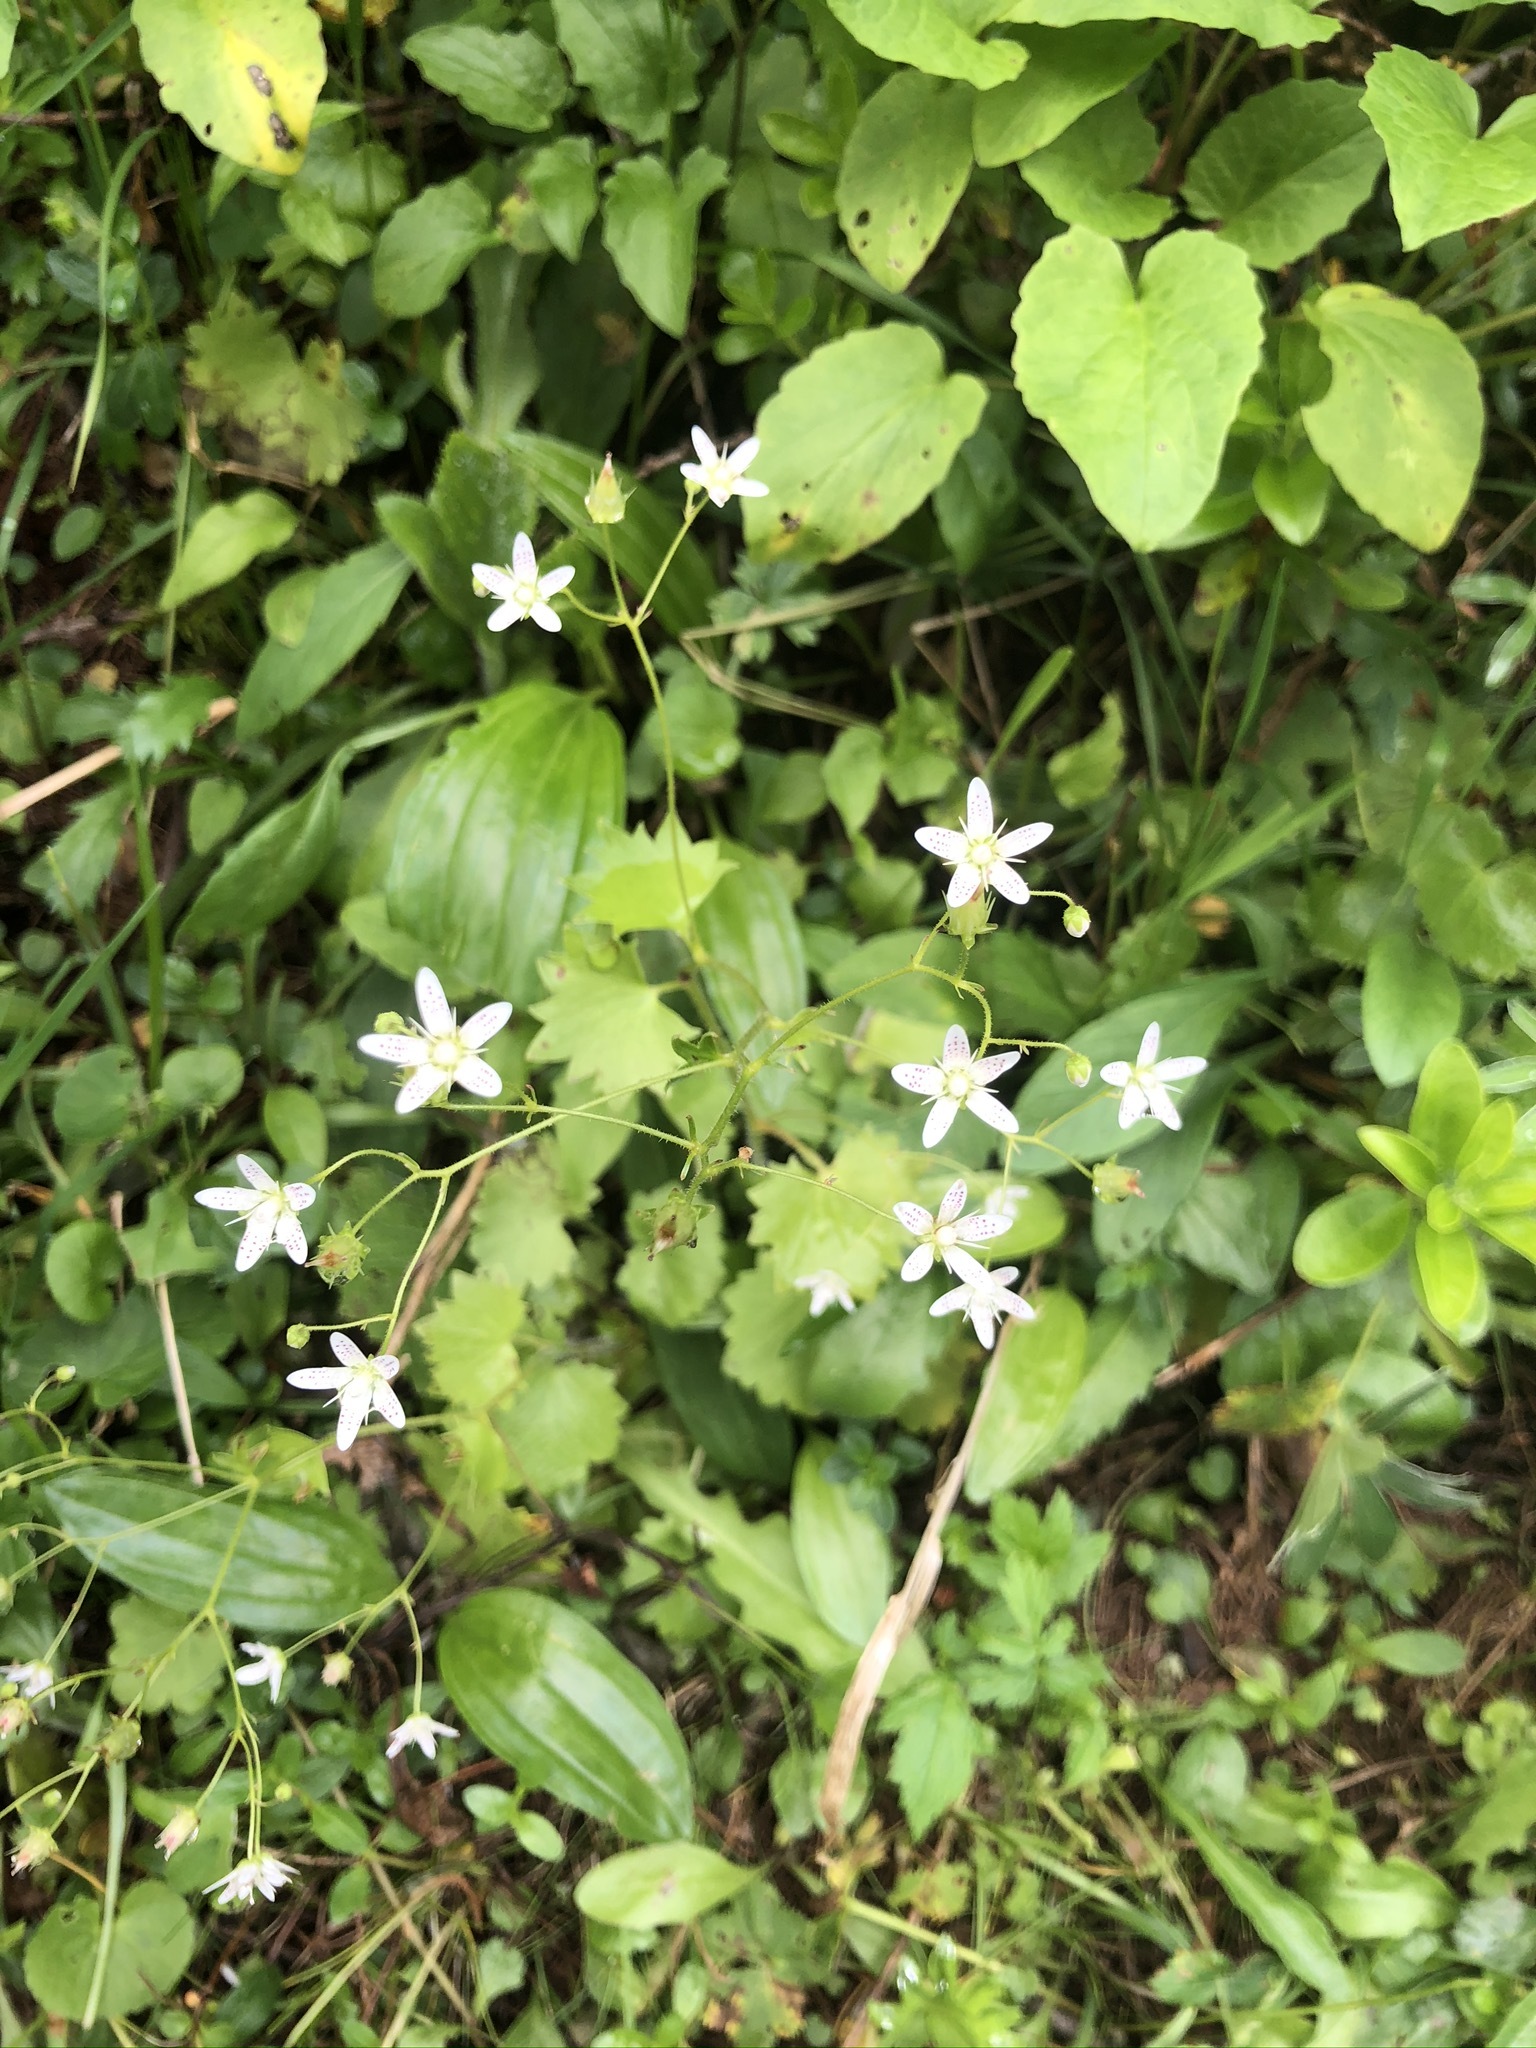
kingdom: Plantae
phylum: Tracheophyta
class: Magnoliopsida
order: Saxifragales
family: Saxifragaceae
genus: Saxifraga
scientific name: Saxifraga rotundifolia
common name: Round-leaved saxifrage
